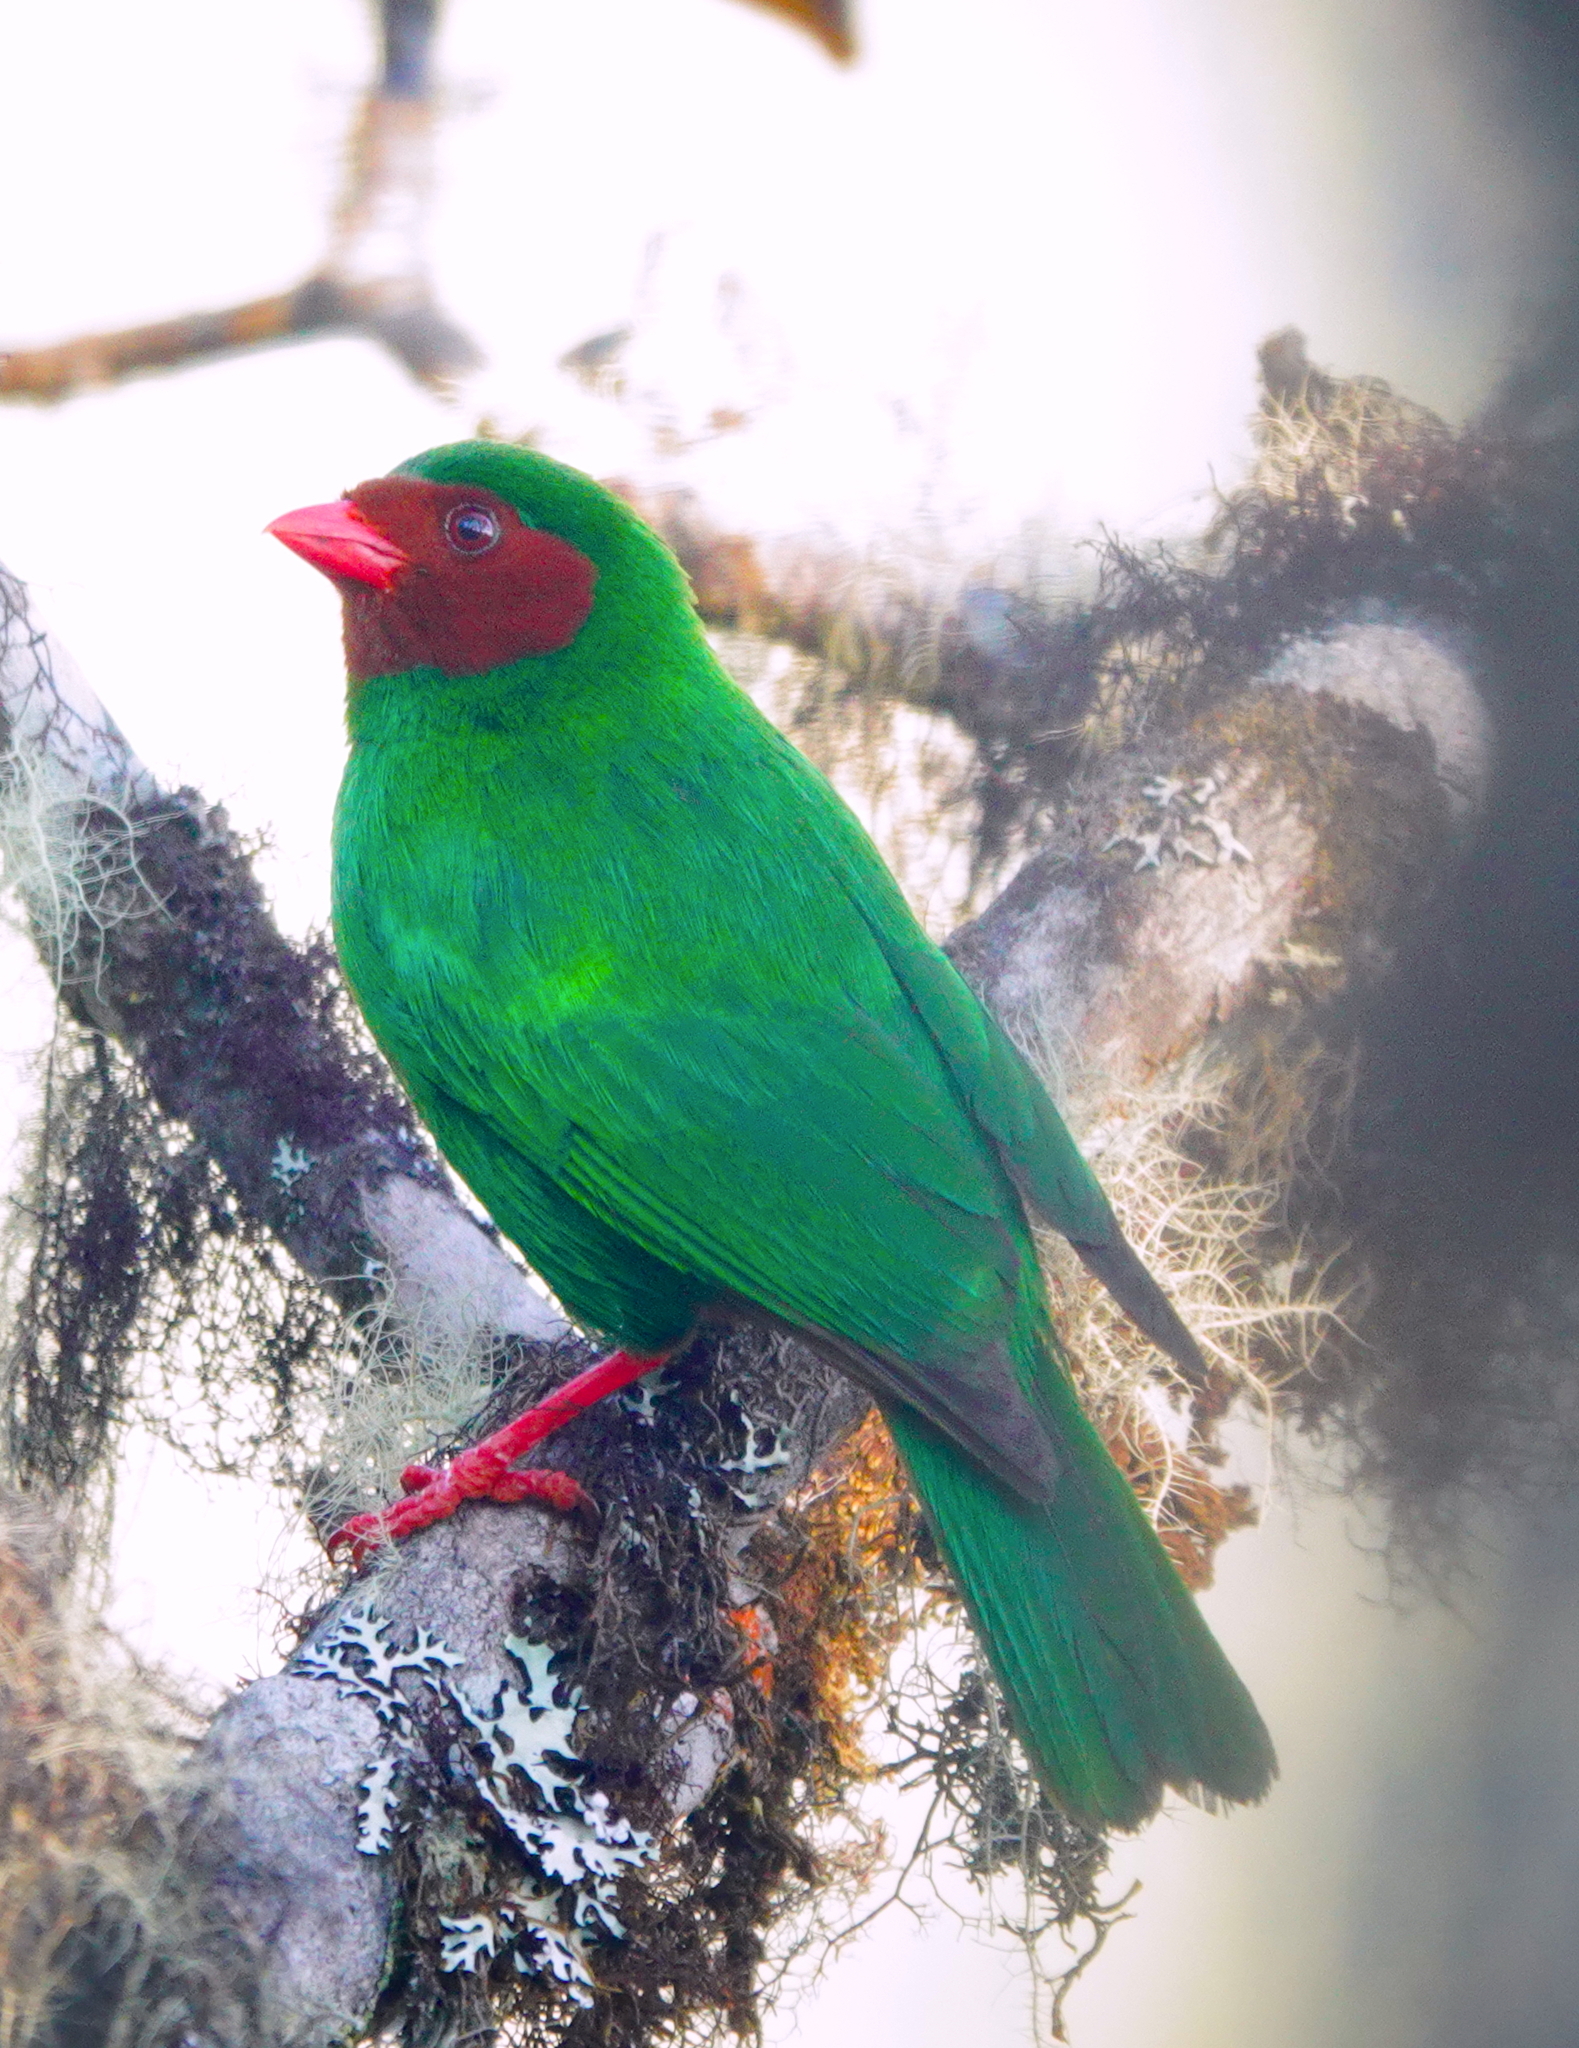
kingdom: Animalia
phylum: Chordata
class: Aves
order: Passeriformes
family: Thraupidae
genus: Chlorornis
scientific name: Chlorornis riefferii
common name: Grass-green tanager
